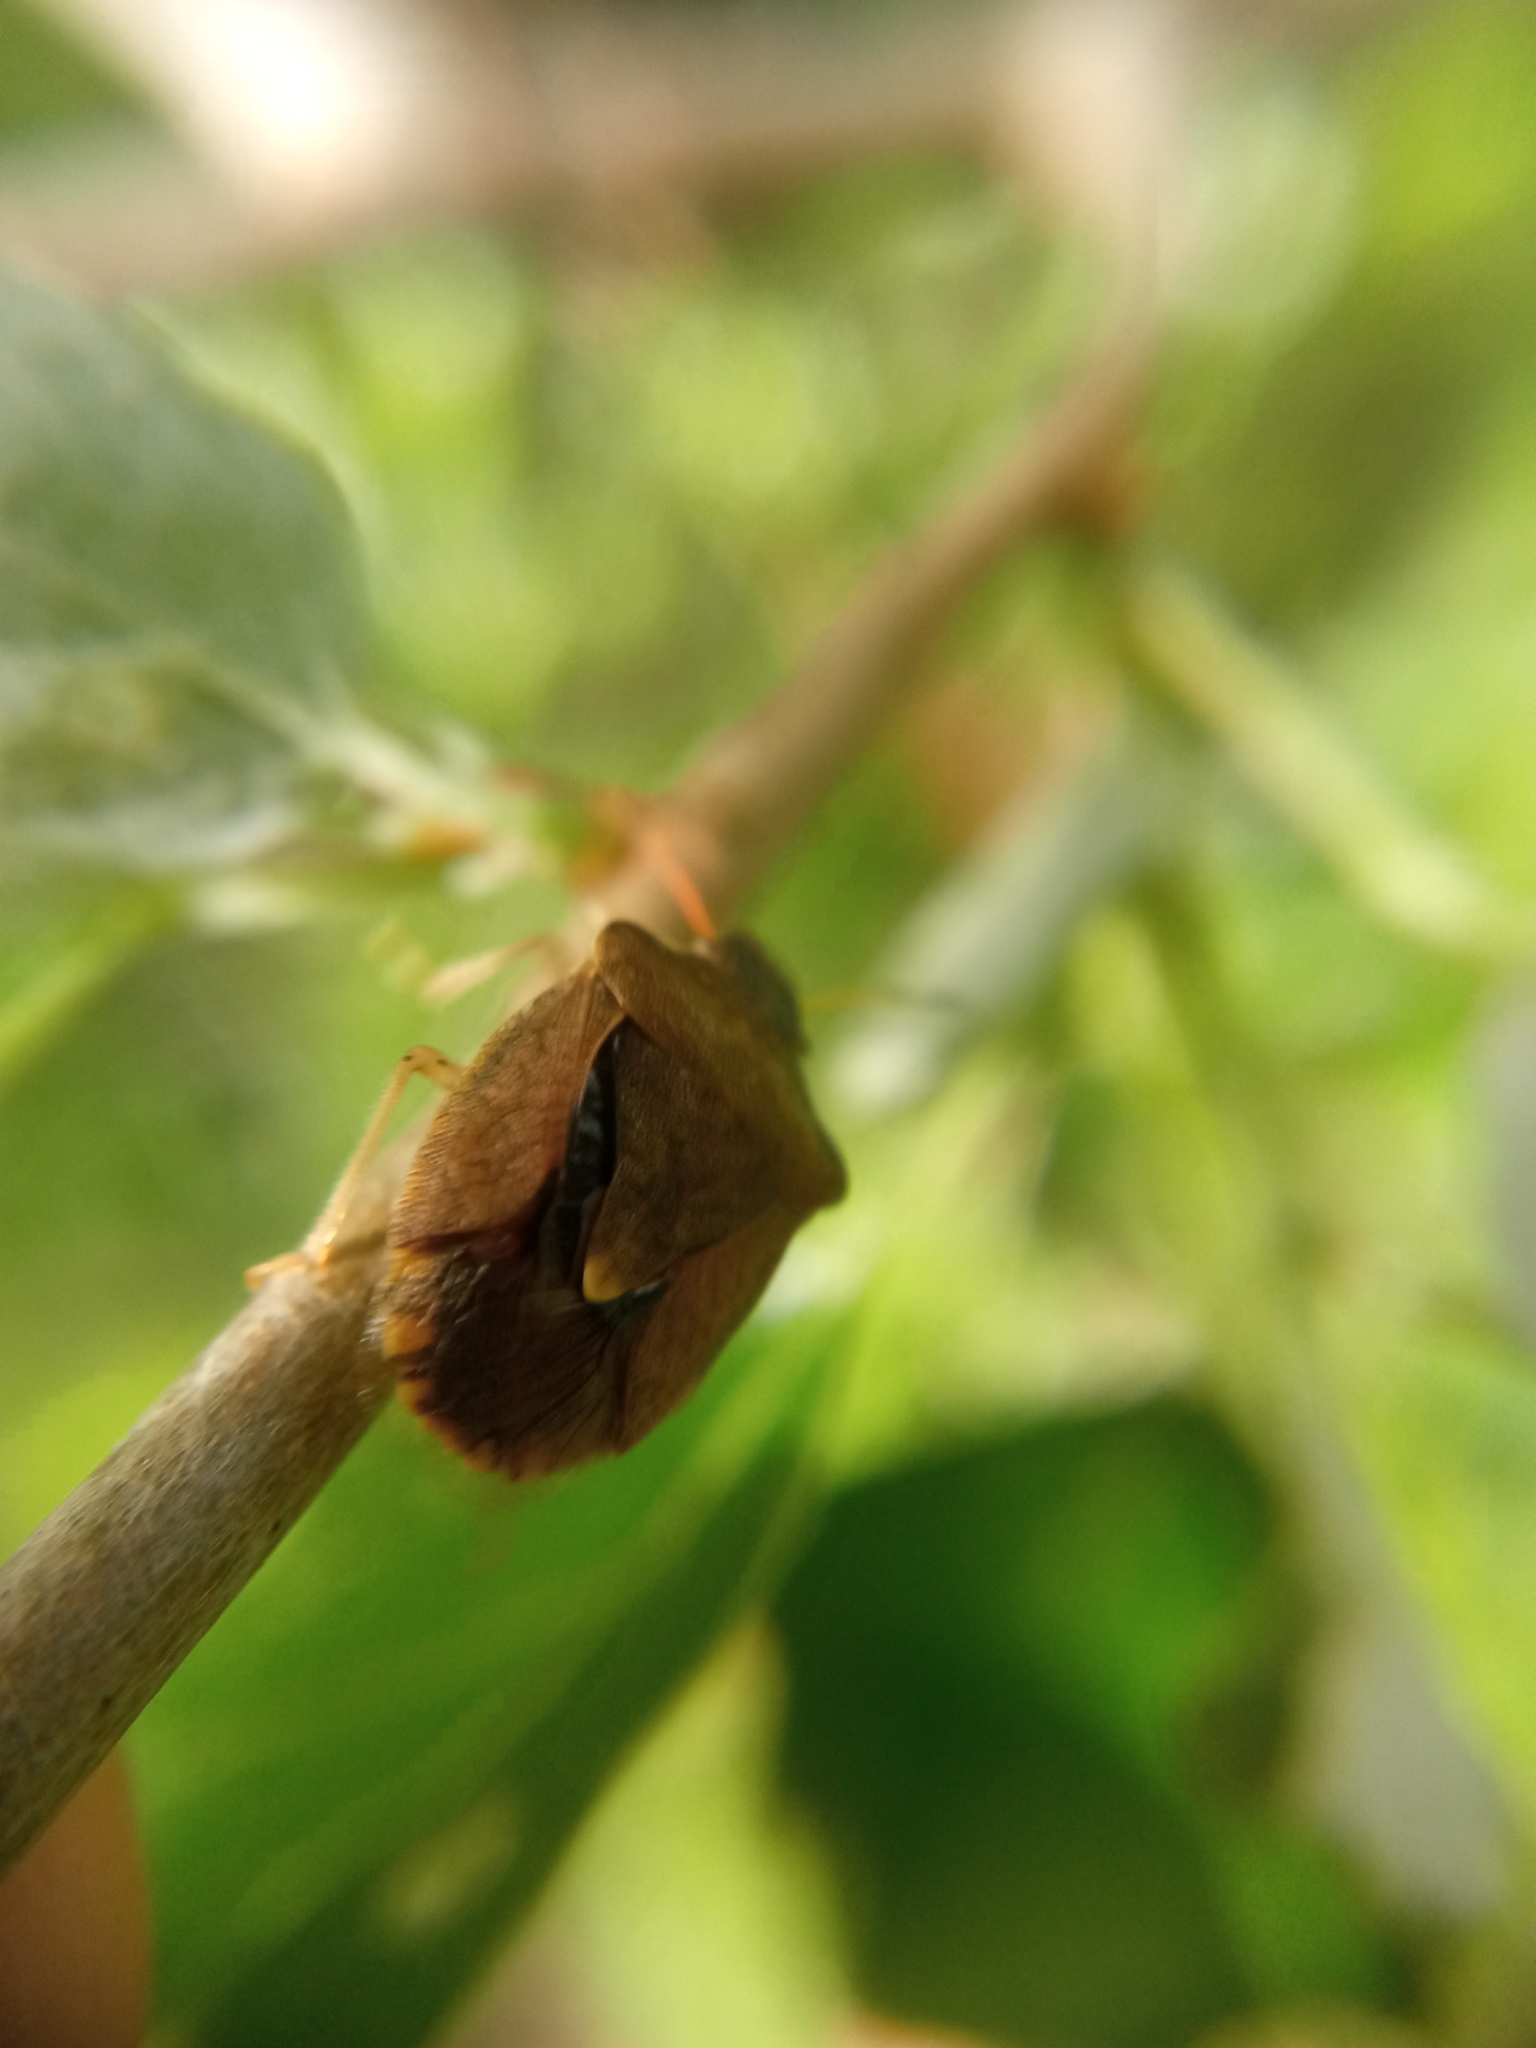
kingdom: Animalia
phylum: Arthropoda
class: Insecta
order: Hemiptera
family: Pentatomidae
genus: Holcostethus
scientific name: Holcostethus strictus
